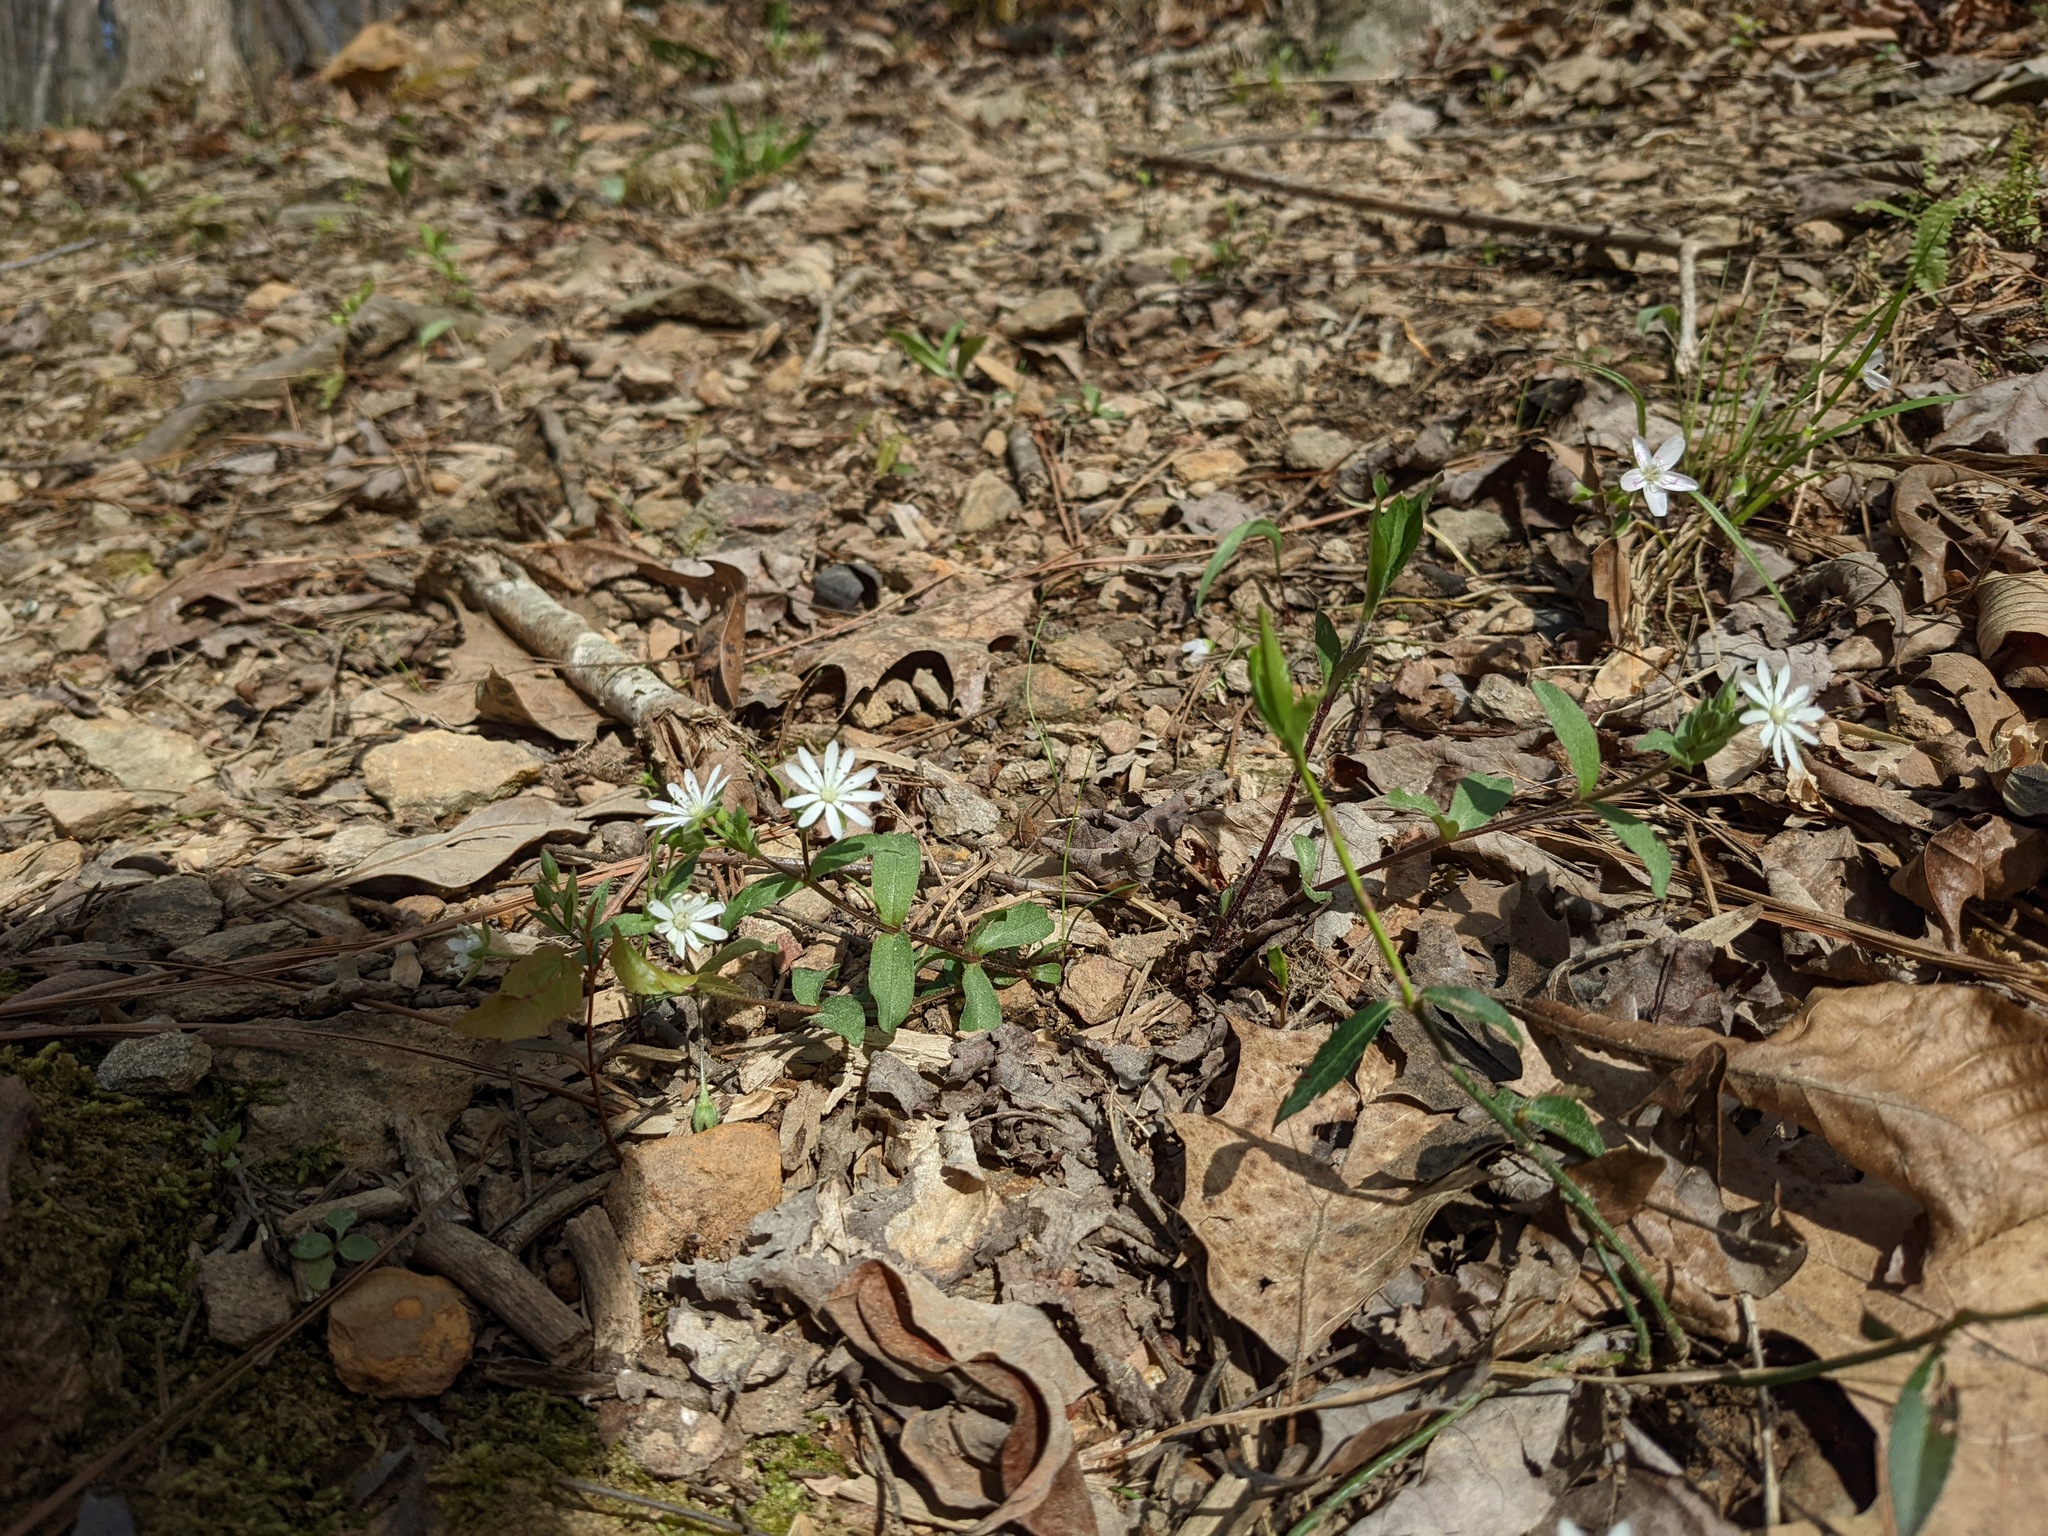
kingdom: Plantae
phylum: Tracheophyta
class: Magnoliopsida
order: Caryophyllales
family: Caryophyllaceae
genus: Stellaria
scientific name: Stellaria pubera
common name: Star chickweed
